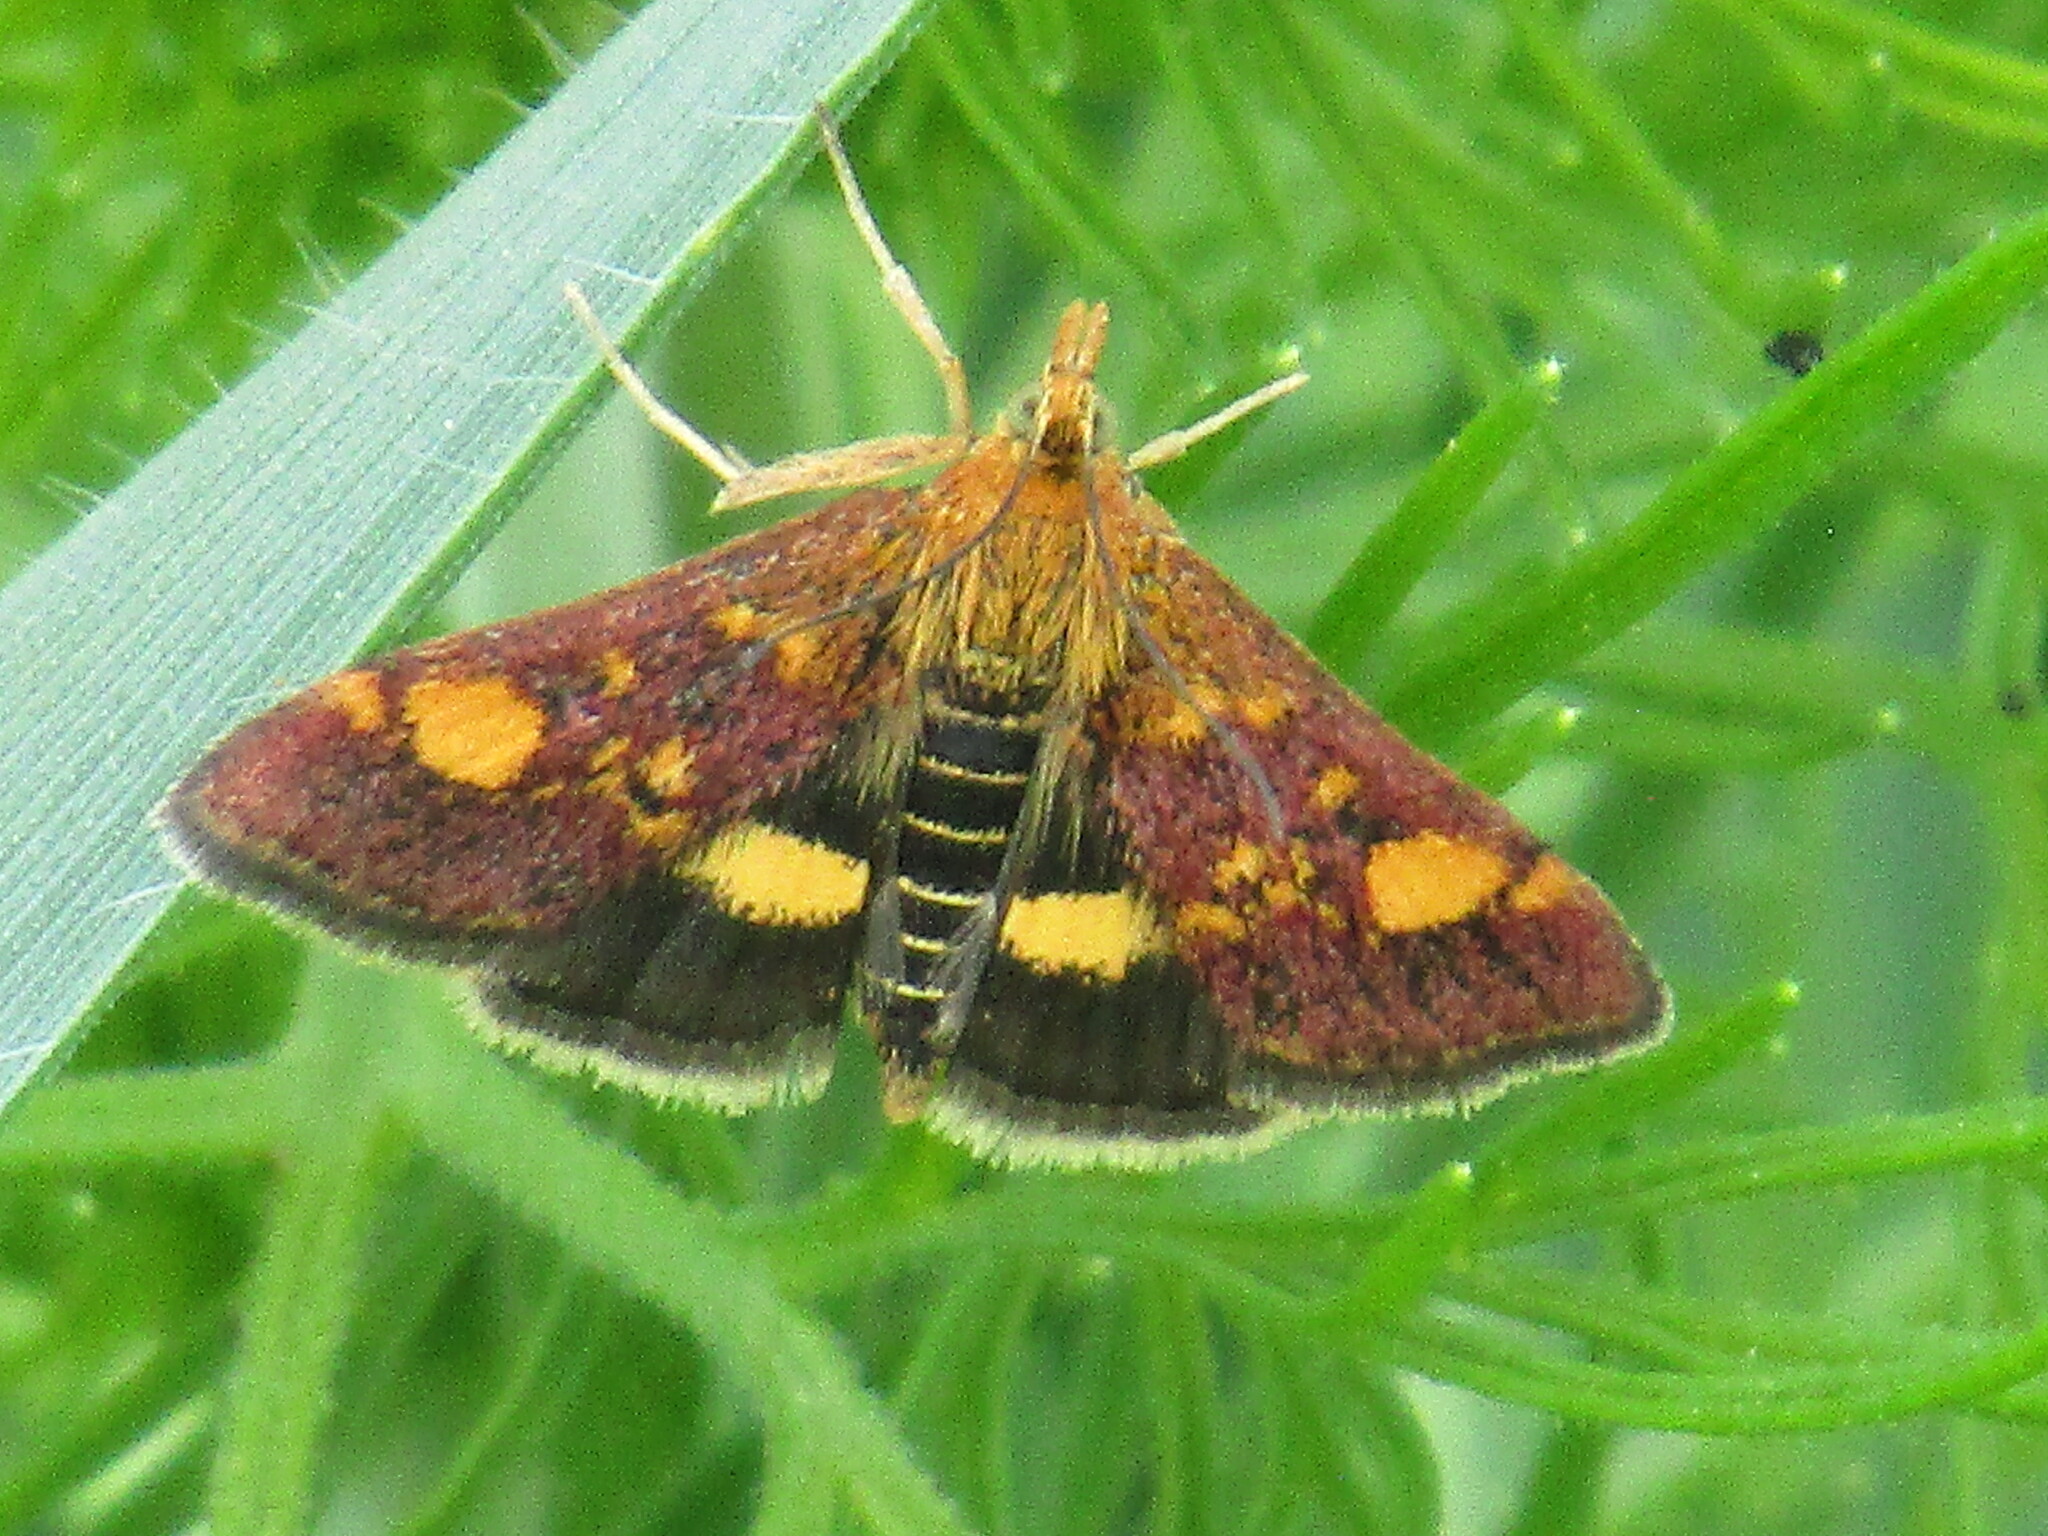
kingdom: Animalia
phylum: Arthropoda
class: Insecta
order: Lepidoptera
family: Crambidae
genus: Pyrausta
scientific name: Pyrausta aurata
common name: Small purple & gold
